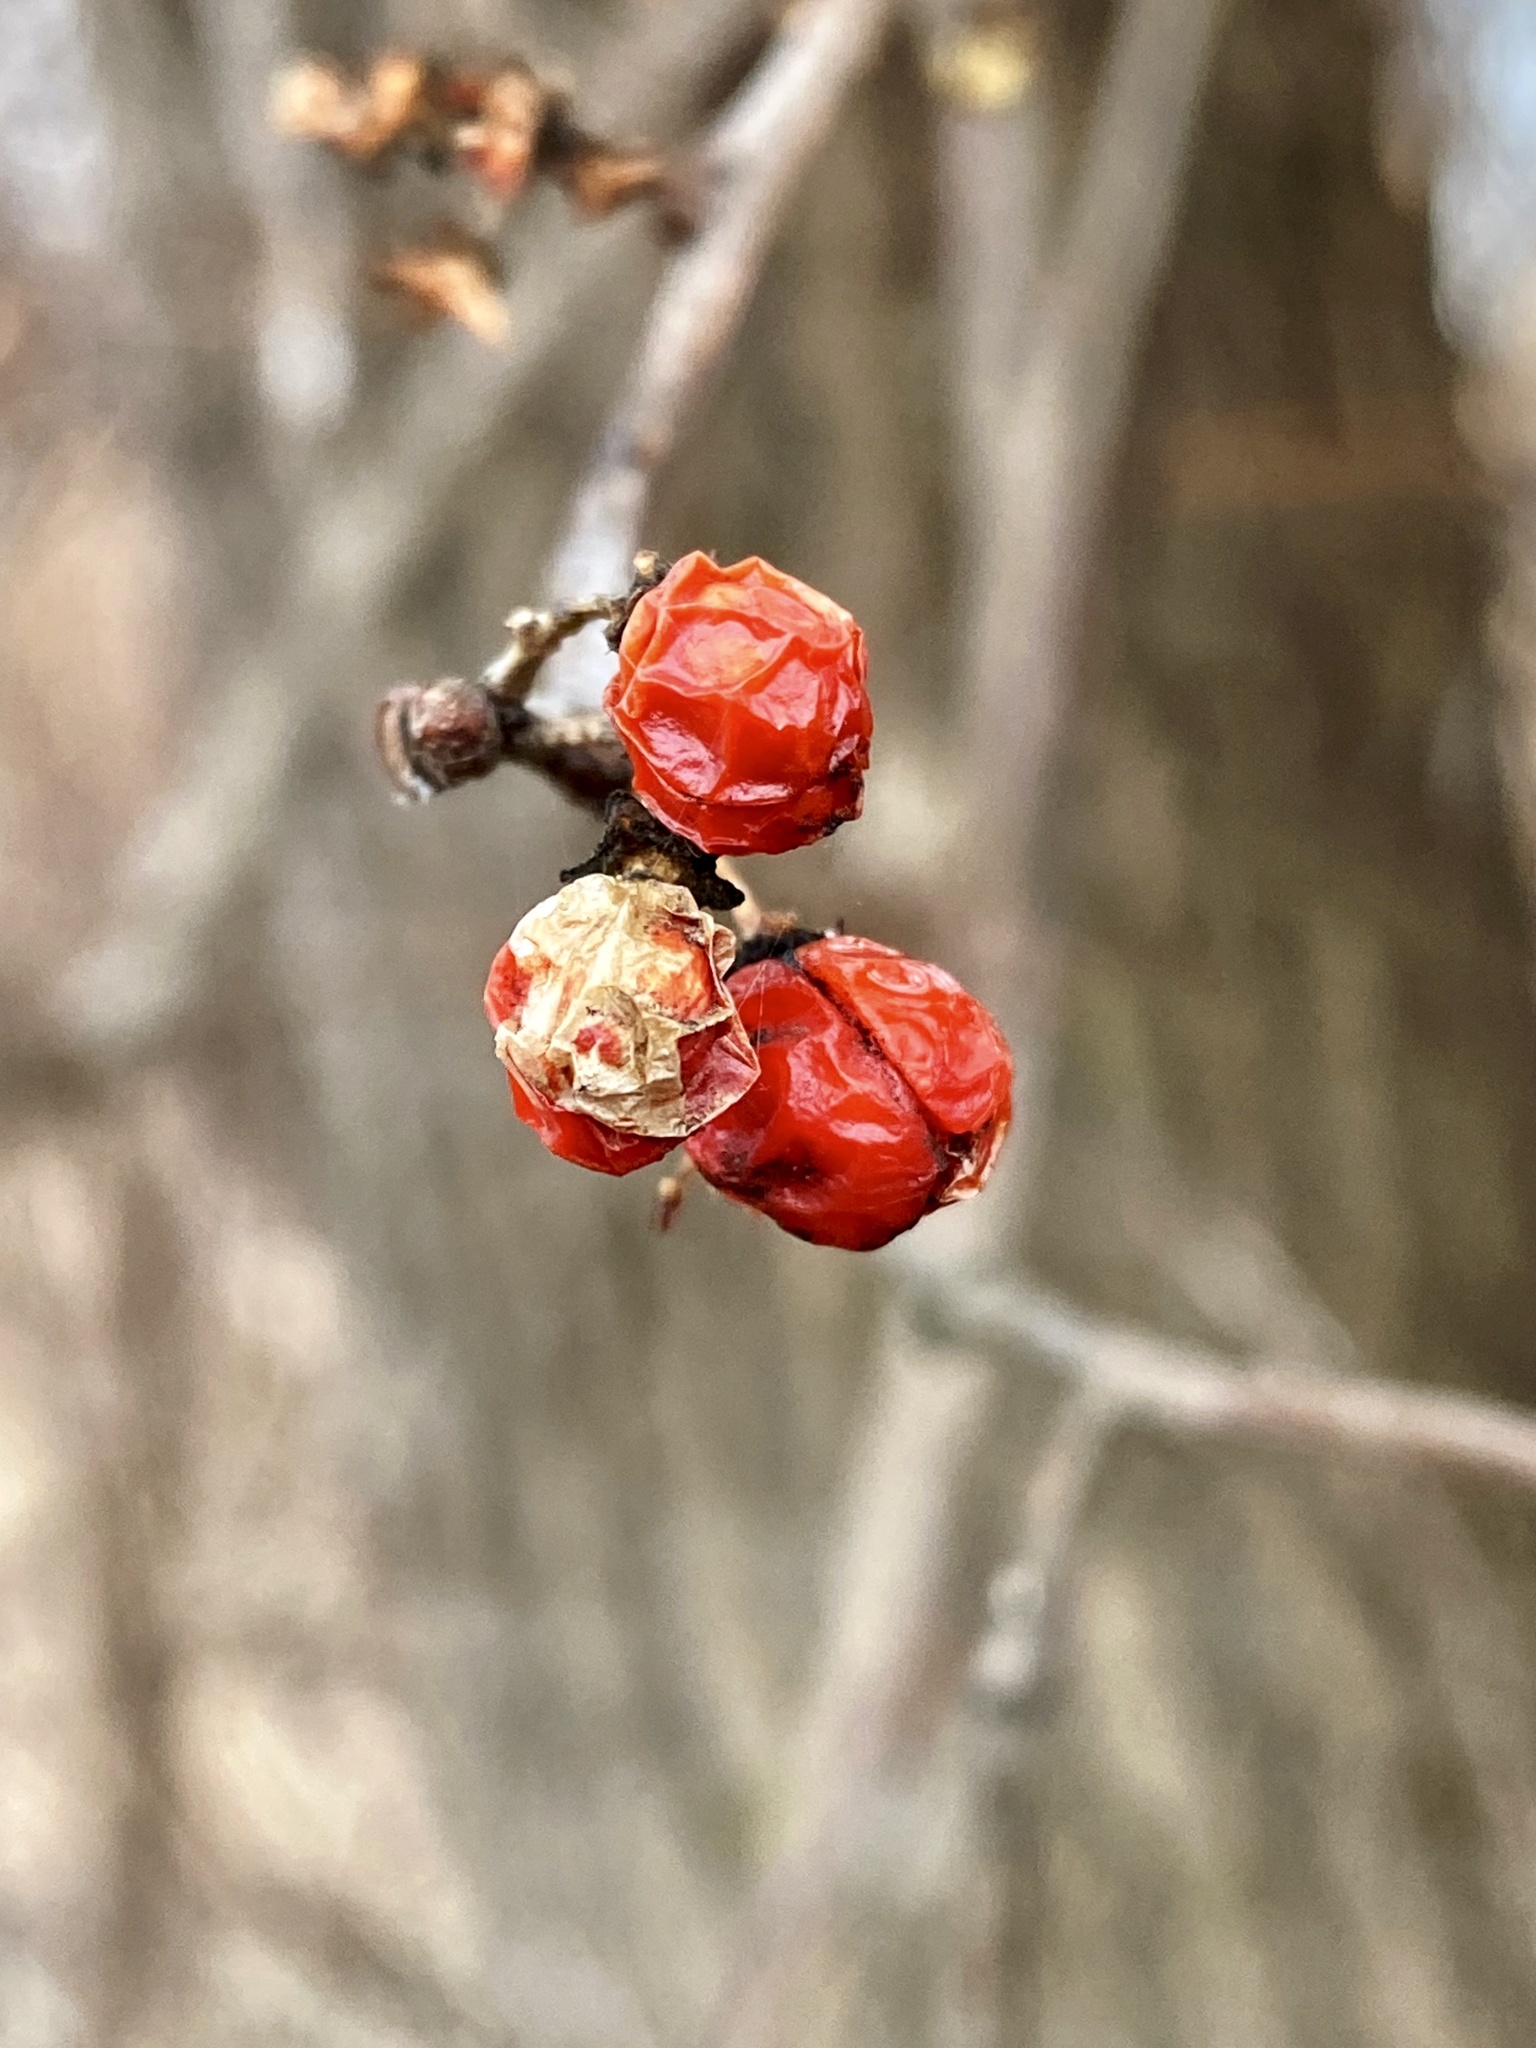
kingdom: Plantae
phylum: Tracheophyta
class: Magnoliopsida
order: Celastrales
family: Celastraceae
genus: Celastrus
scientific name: Celastrus orbiculatus
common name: Oriental bittersweet
